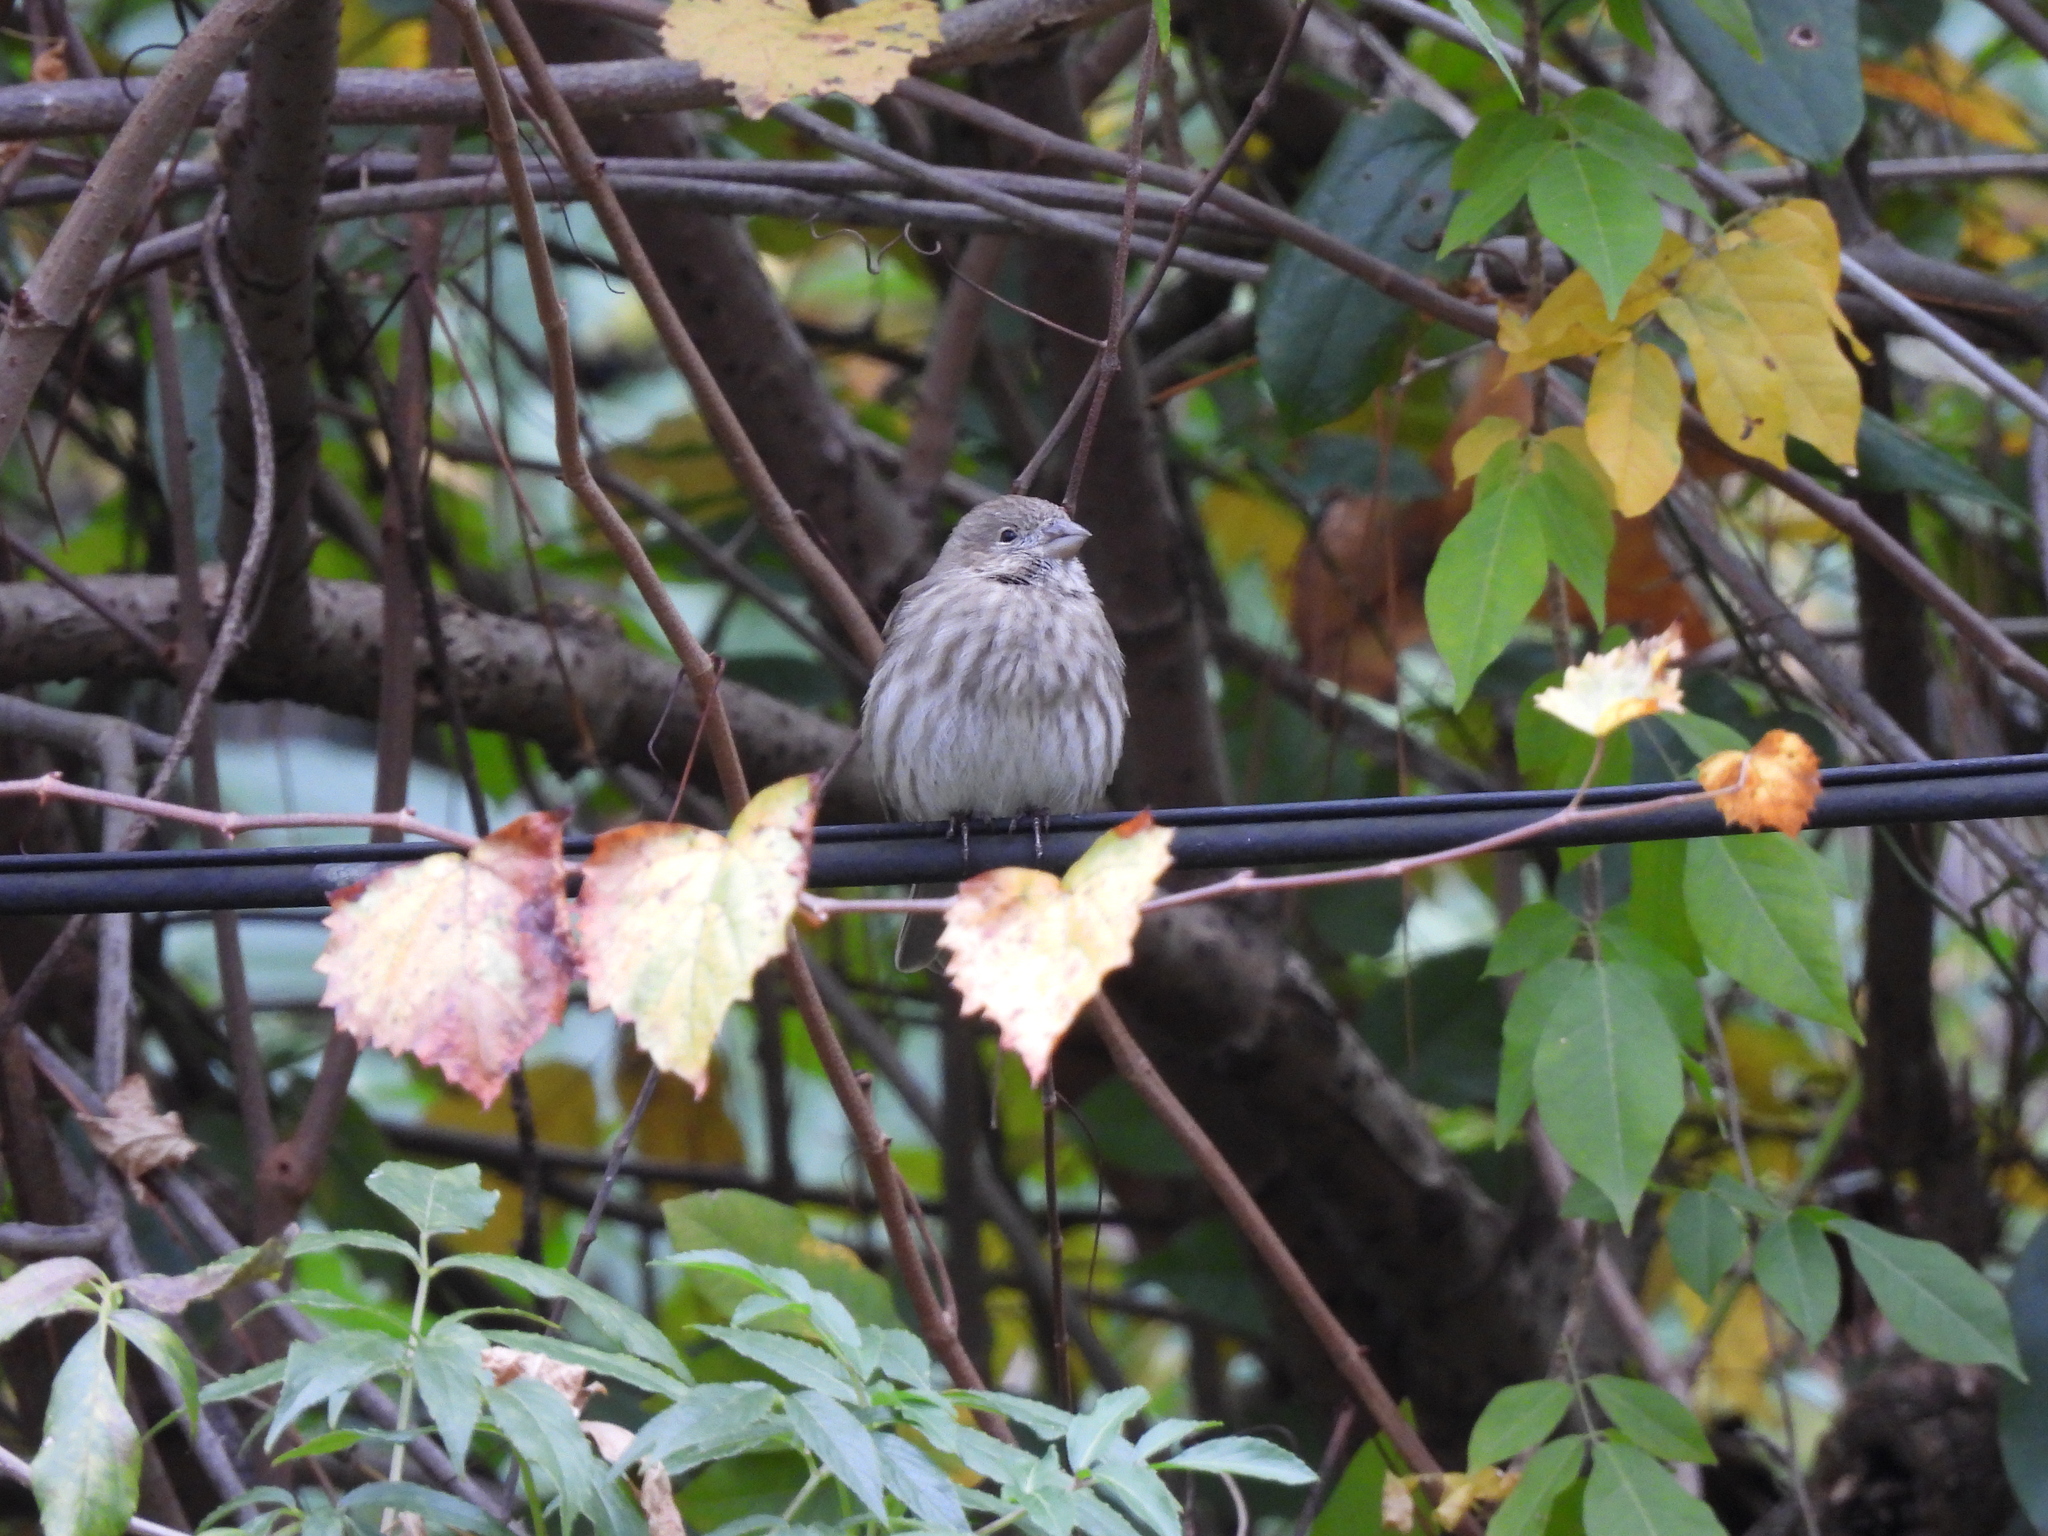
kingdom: Animalia
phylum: Chordata
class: Aves
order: Passeriformes
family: Fringillidae
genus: Haemorhous
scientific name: Haemorhous mexicanus
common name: House finch
